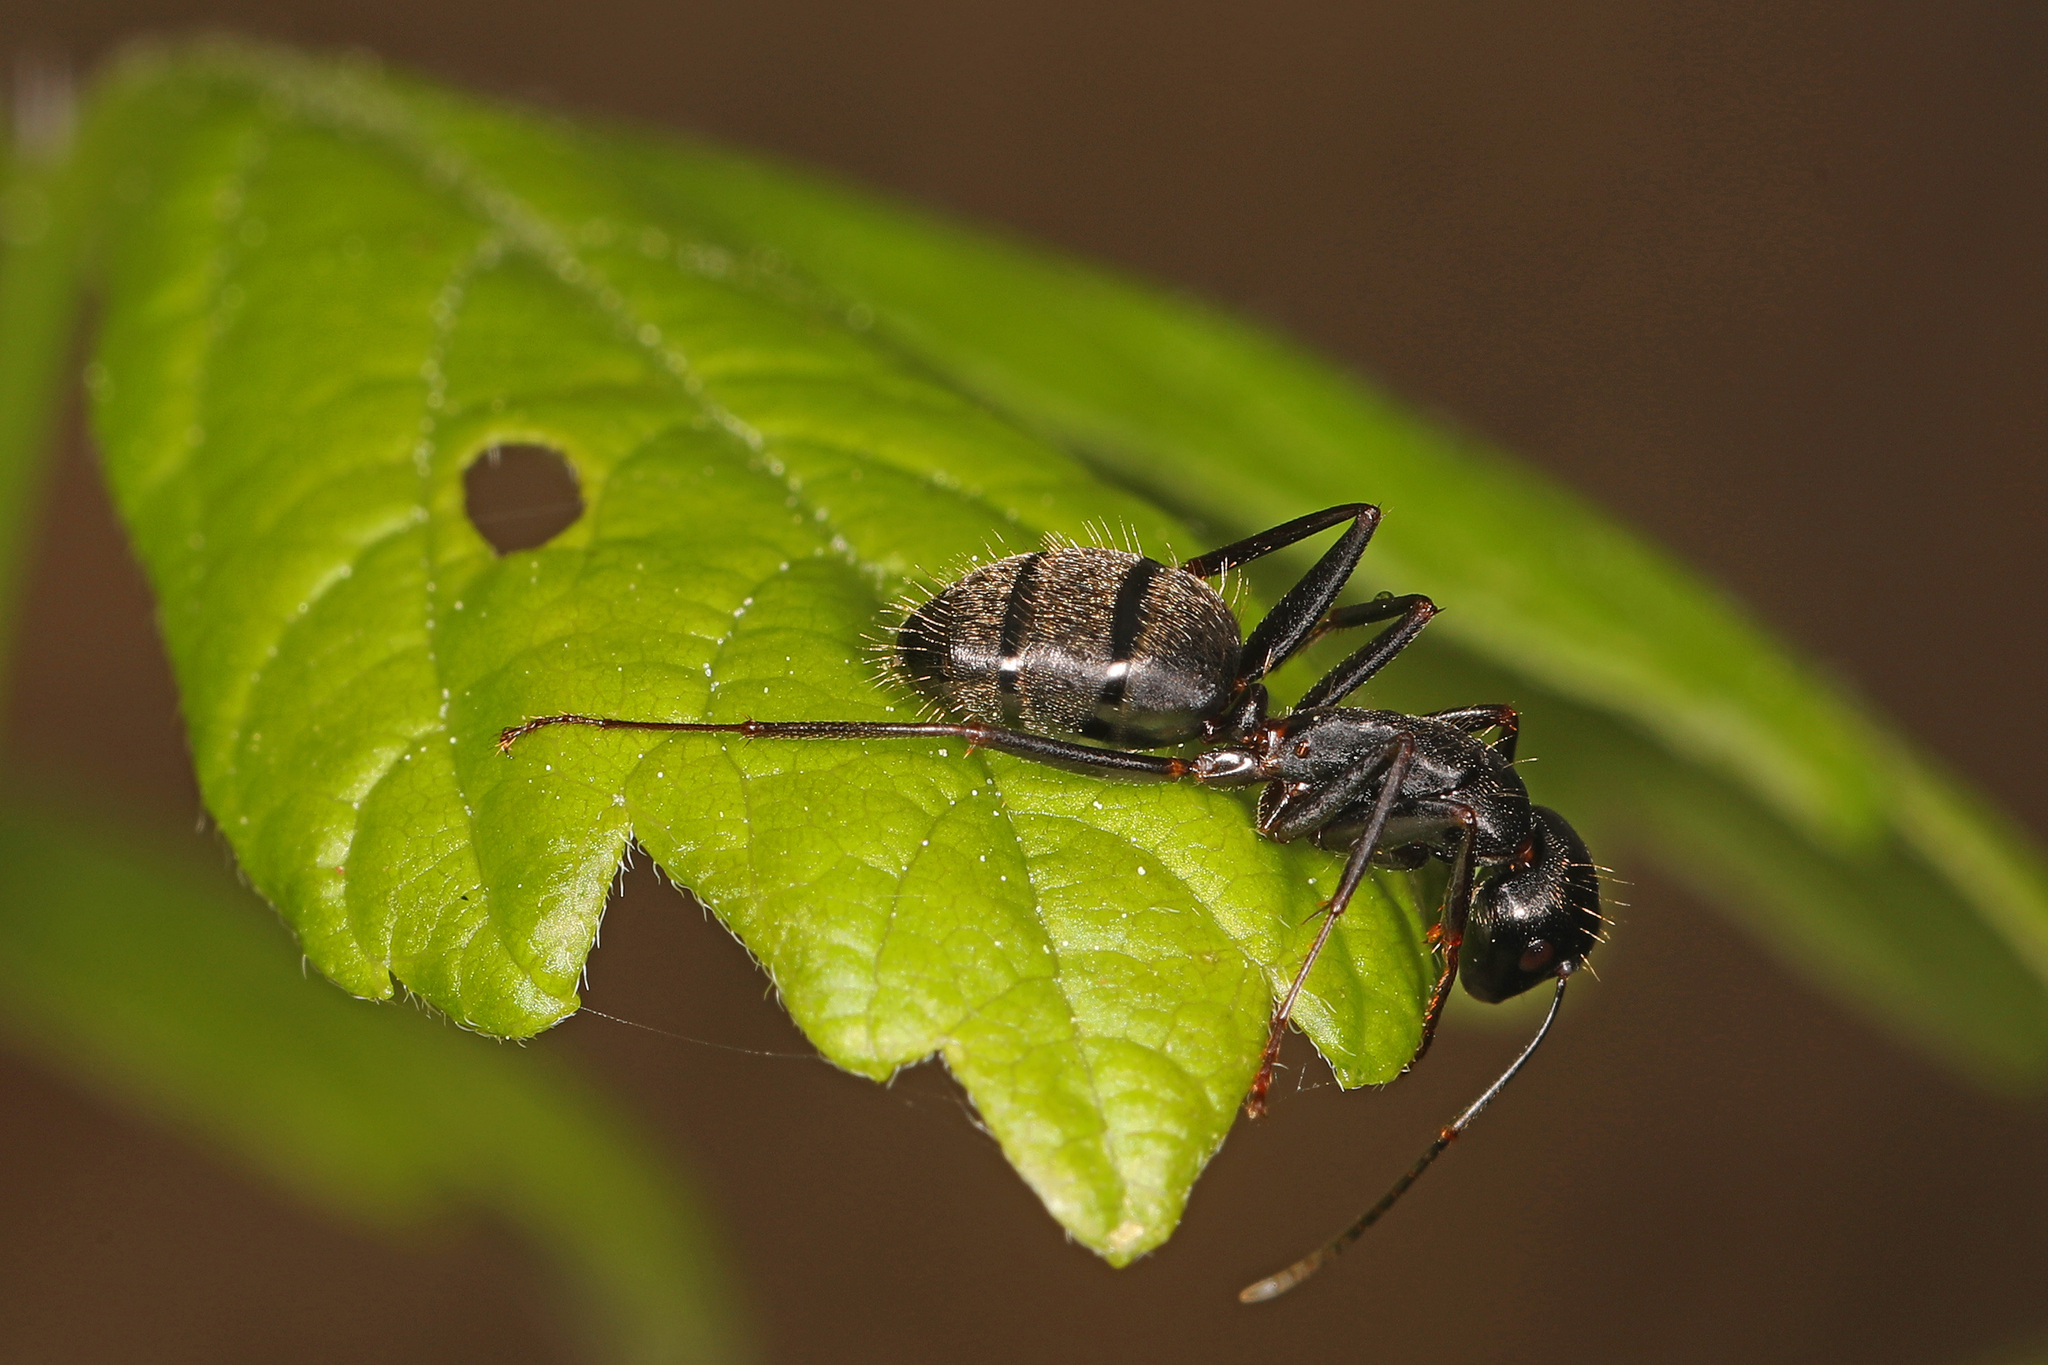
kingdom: Animalia
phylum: Arthropoda
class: Insecta
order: Hymenoptera
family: Formicidae
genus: Camponotus
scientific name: Camponotus pennsylvanicus
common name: Black carpenter ant
